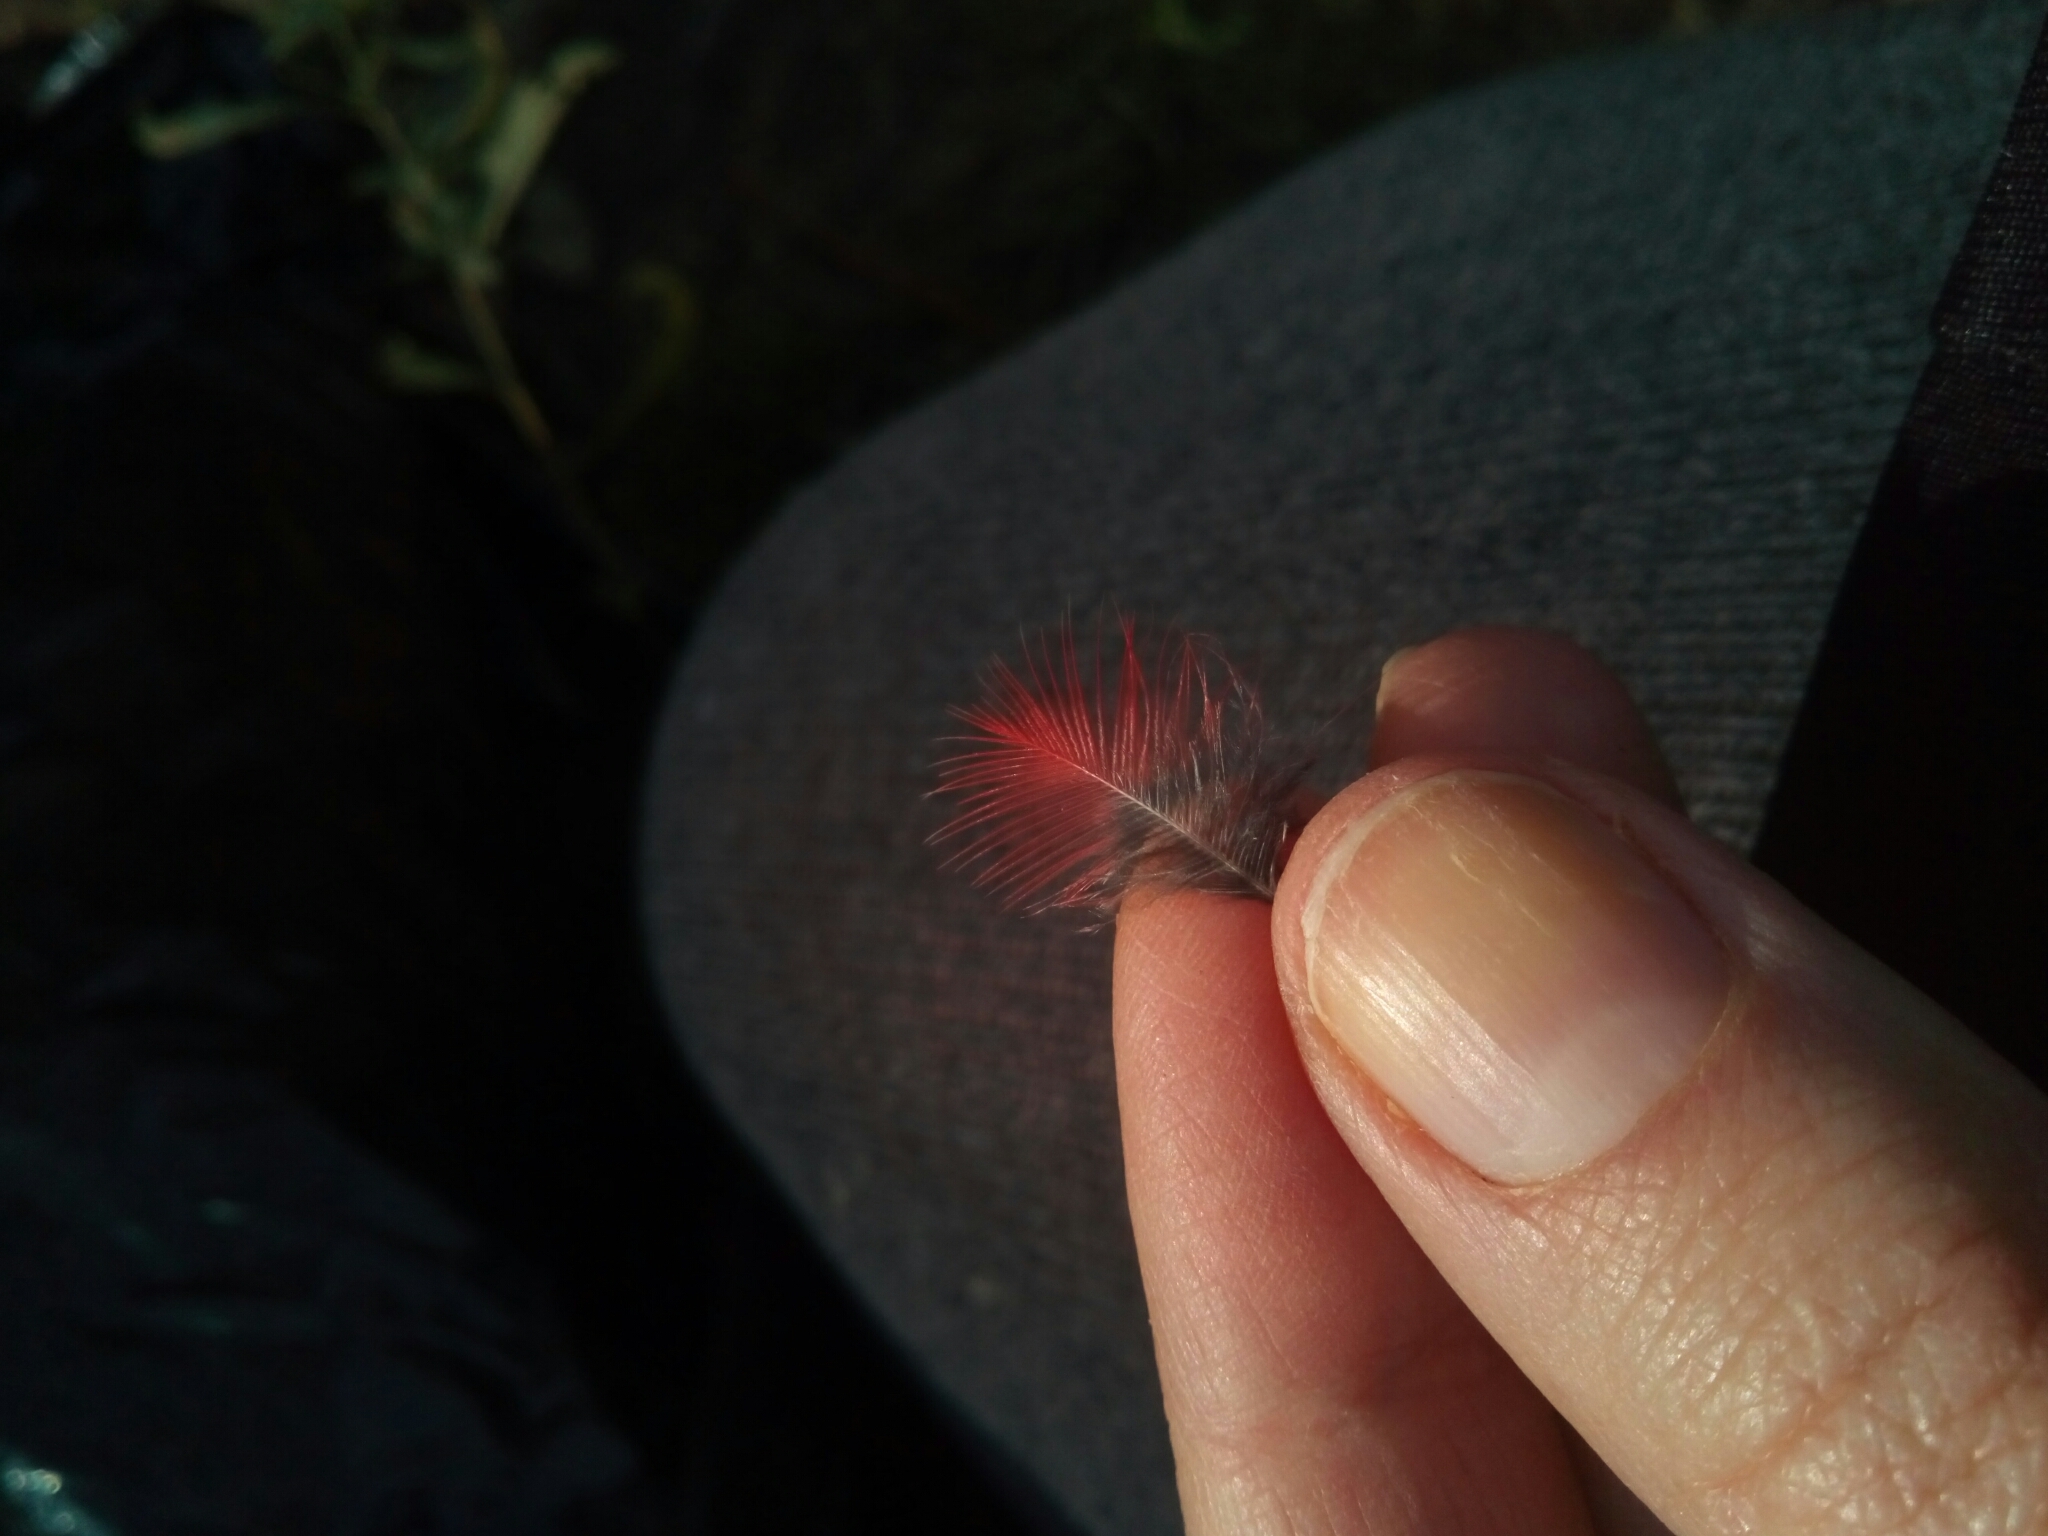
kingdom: Animalia
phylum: Chordata
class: Aves
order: Passeriformes
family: Cardinalidae
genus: Cardinalis
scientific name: Cardinalis cardinalis
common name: Northern cardinal
